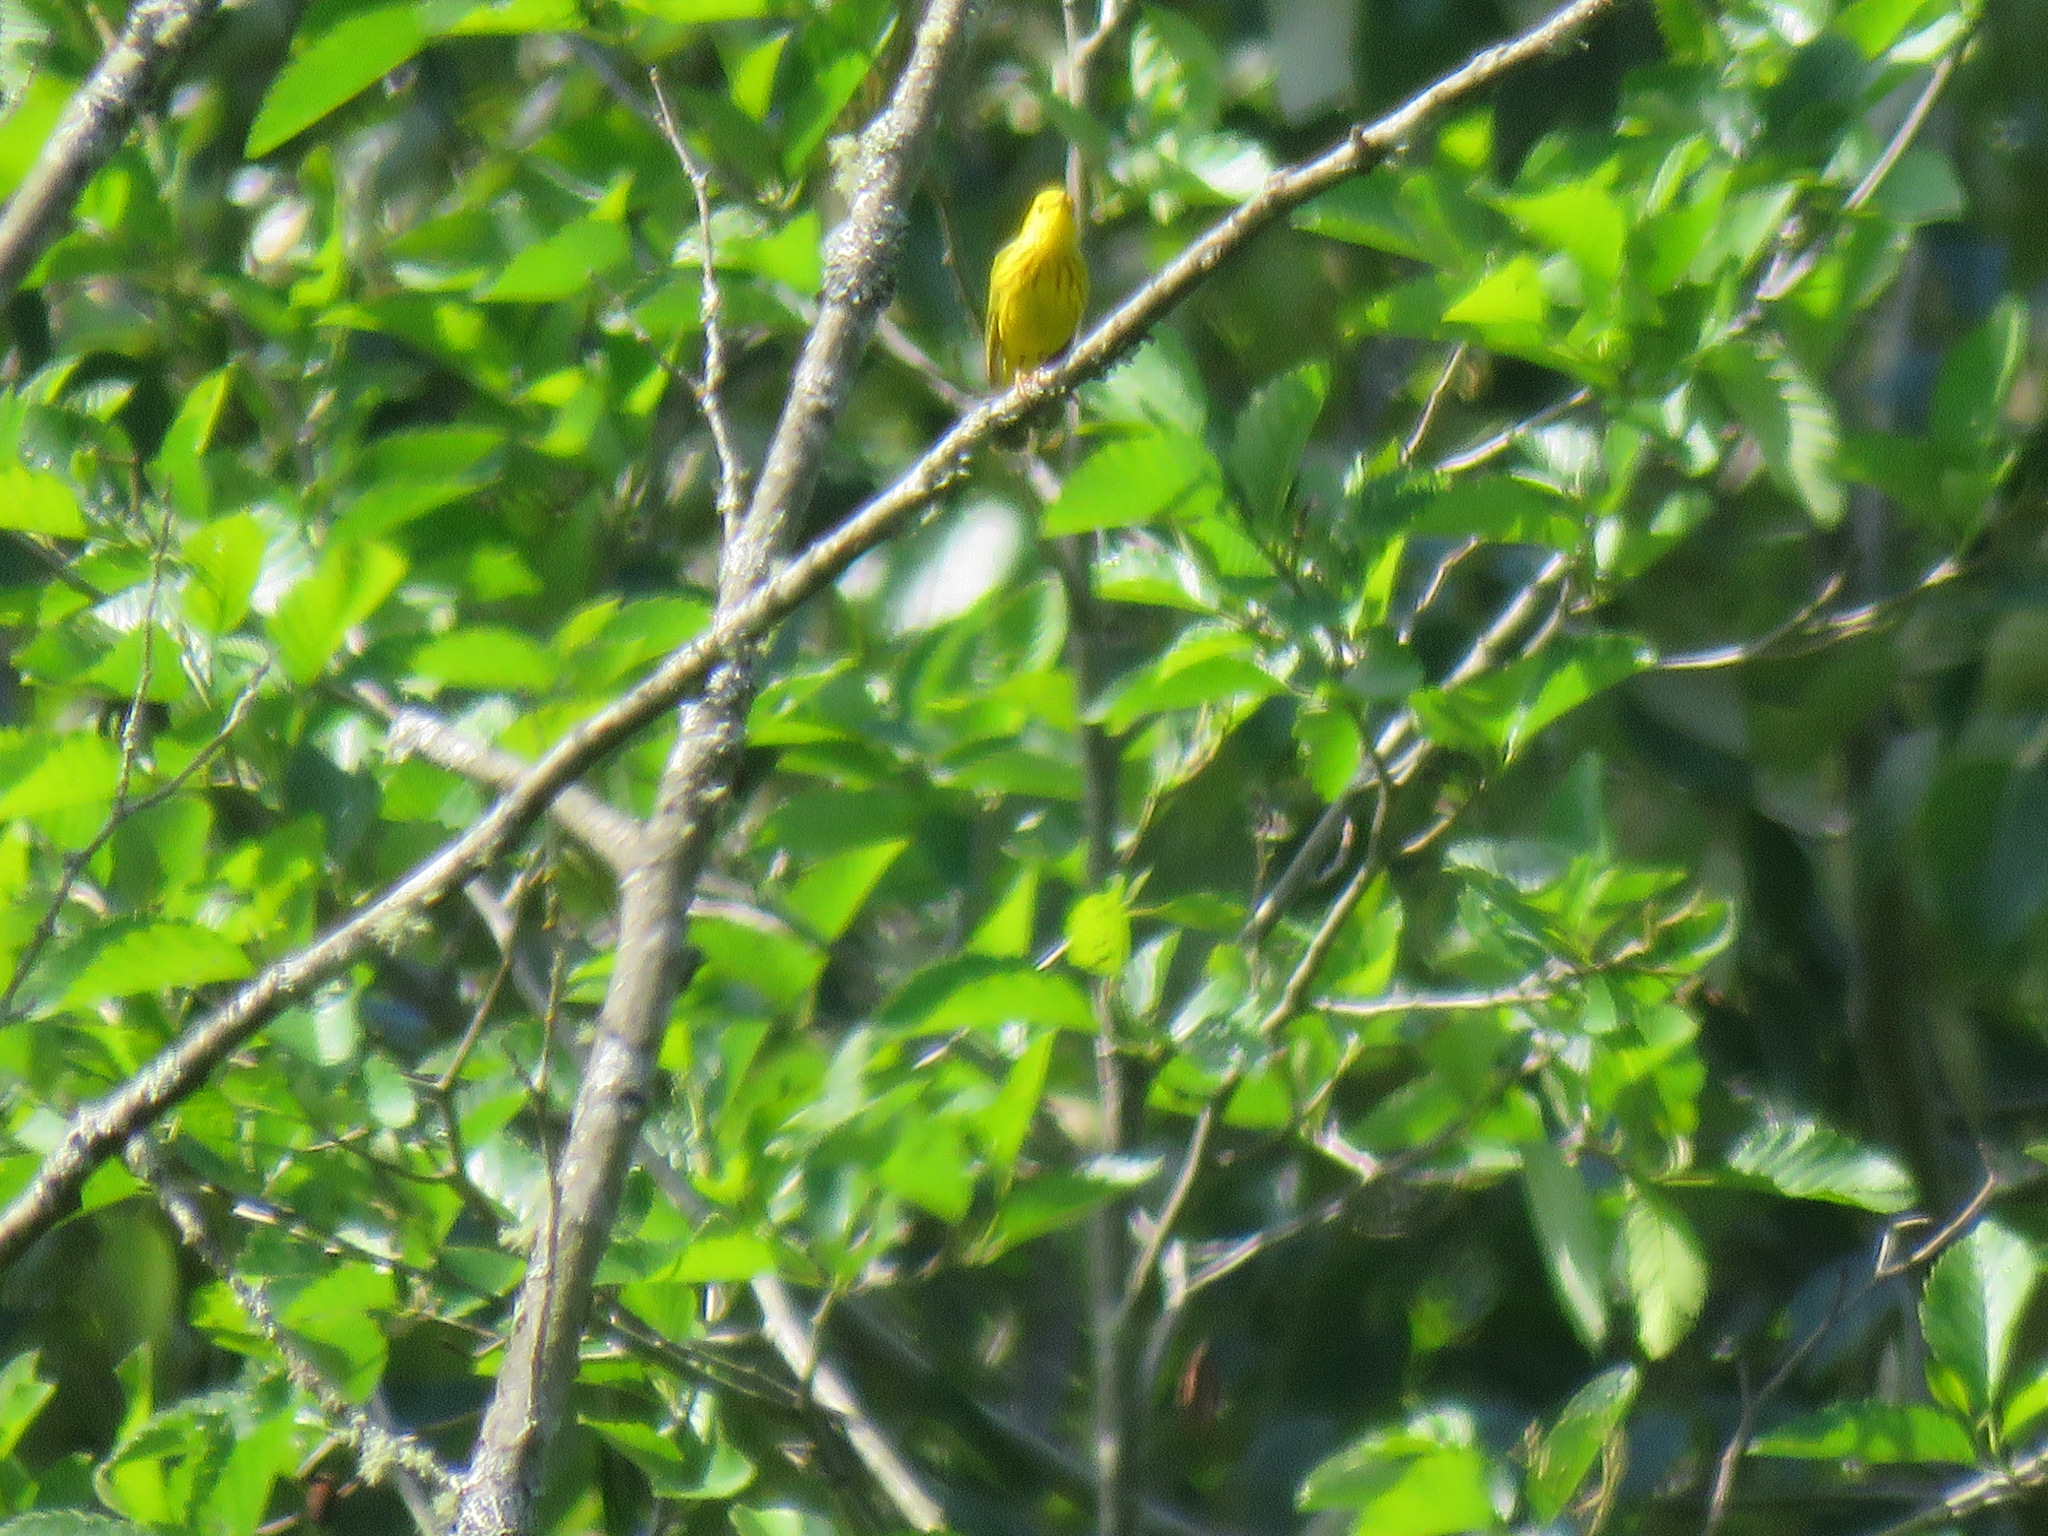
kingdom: Animalia
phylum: Chordata
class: Aves
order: Passeriformes
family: Parulidae
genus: Setophaga
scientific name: Setophaga petechia
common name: Yellow warbler
